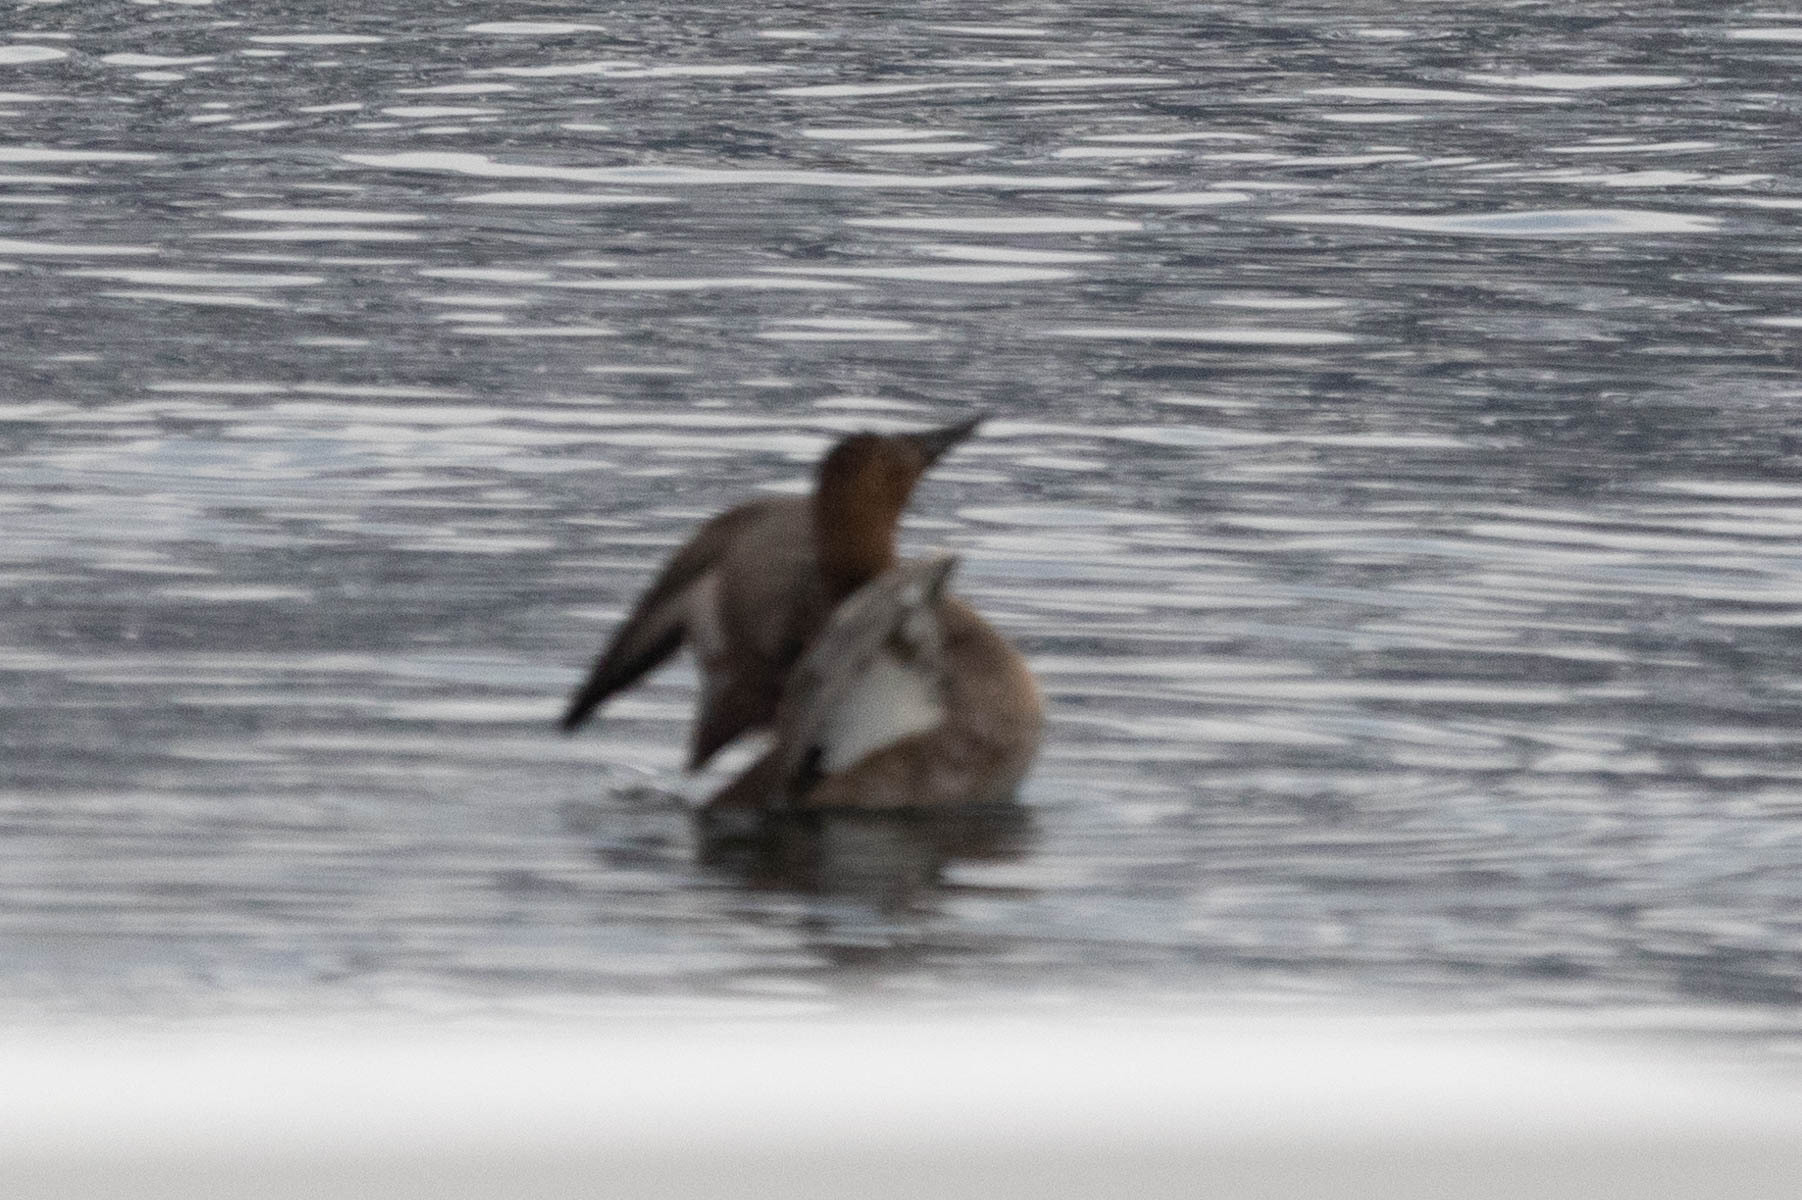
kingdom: Animalia
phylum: Chordata
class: Aves
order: Anseriformes
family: Anatidae
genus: Aythya
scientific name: Aythya valisineria
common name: Canvasback
